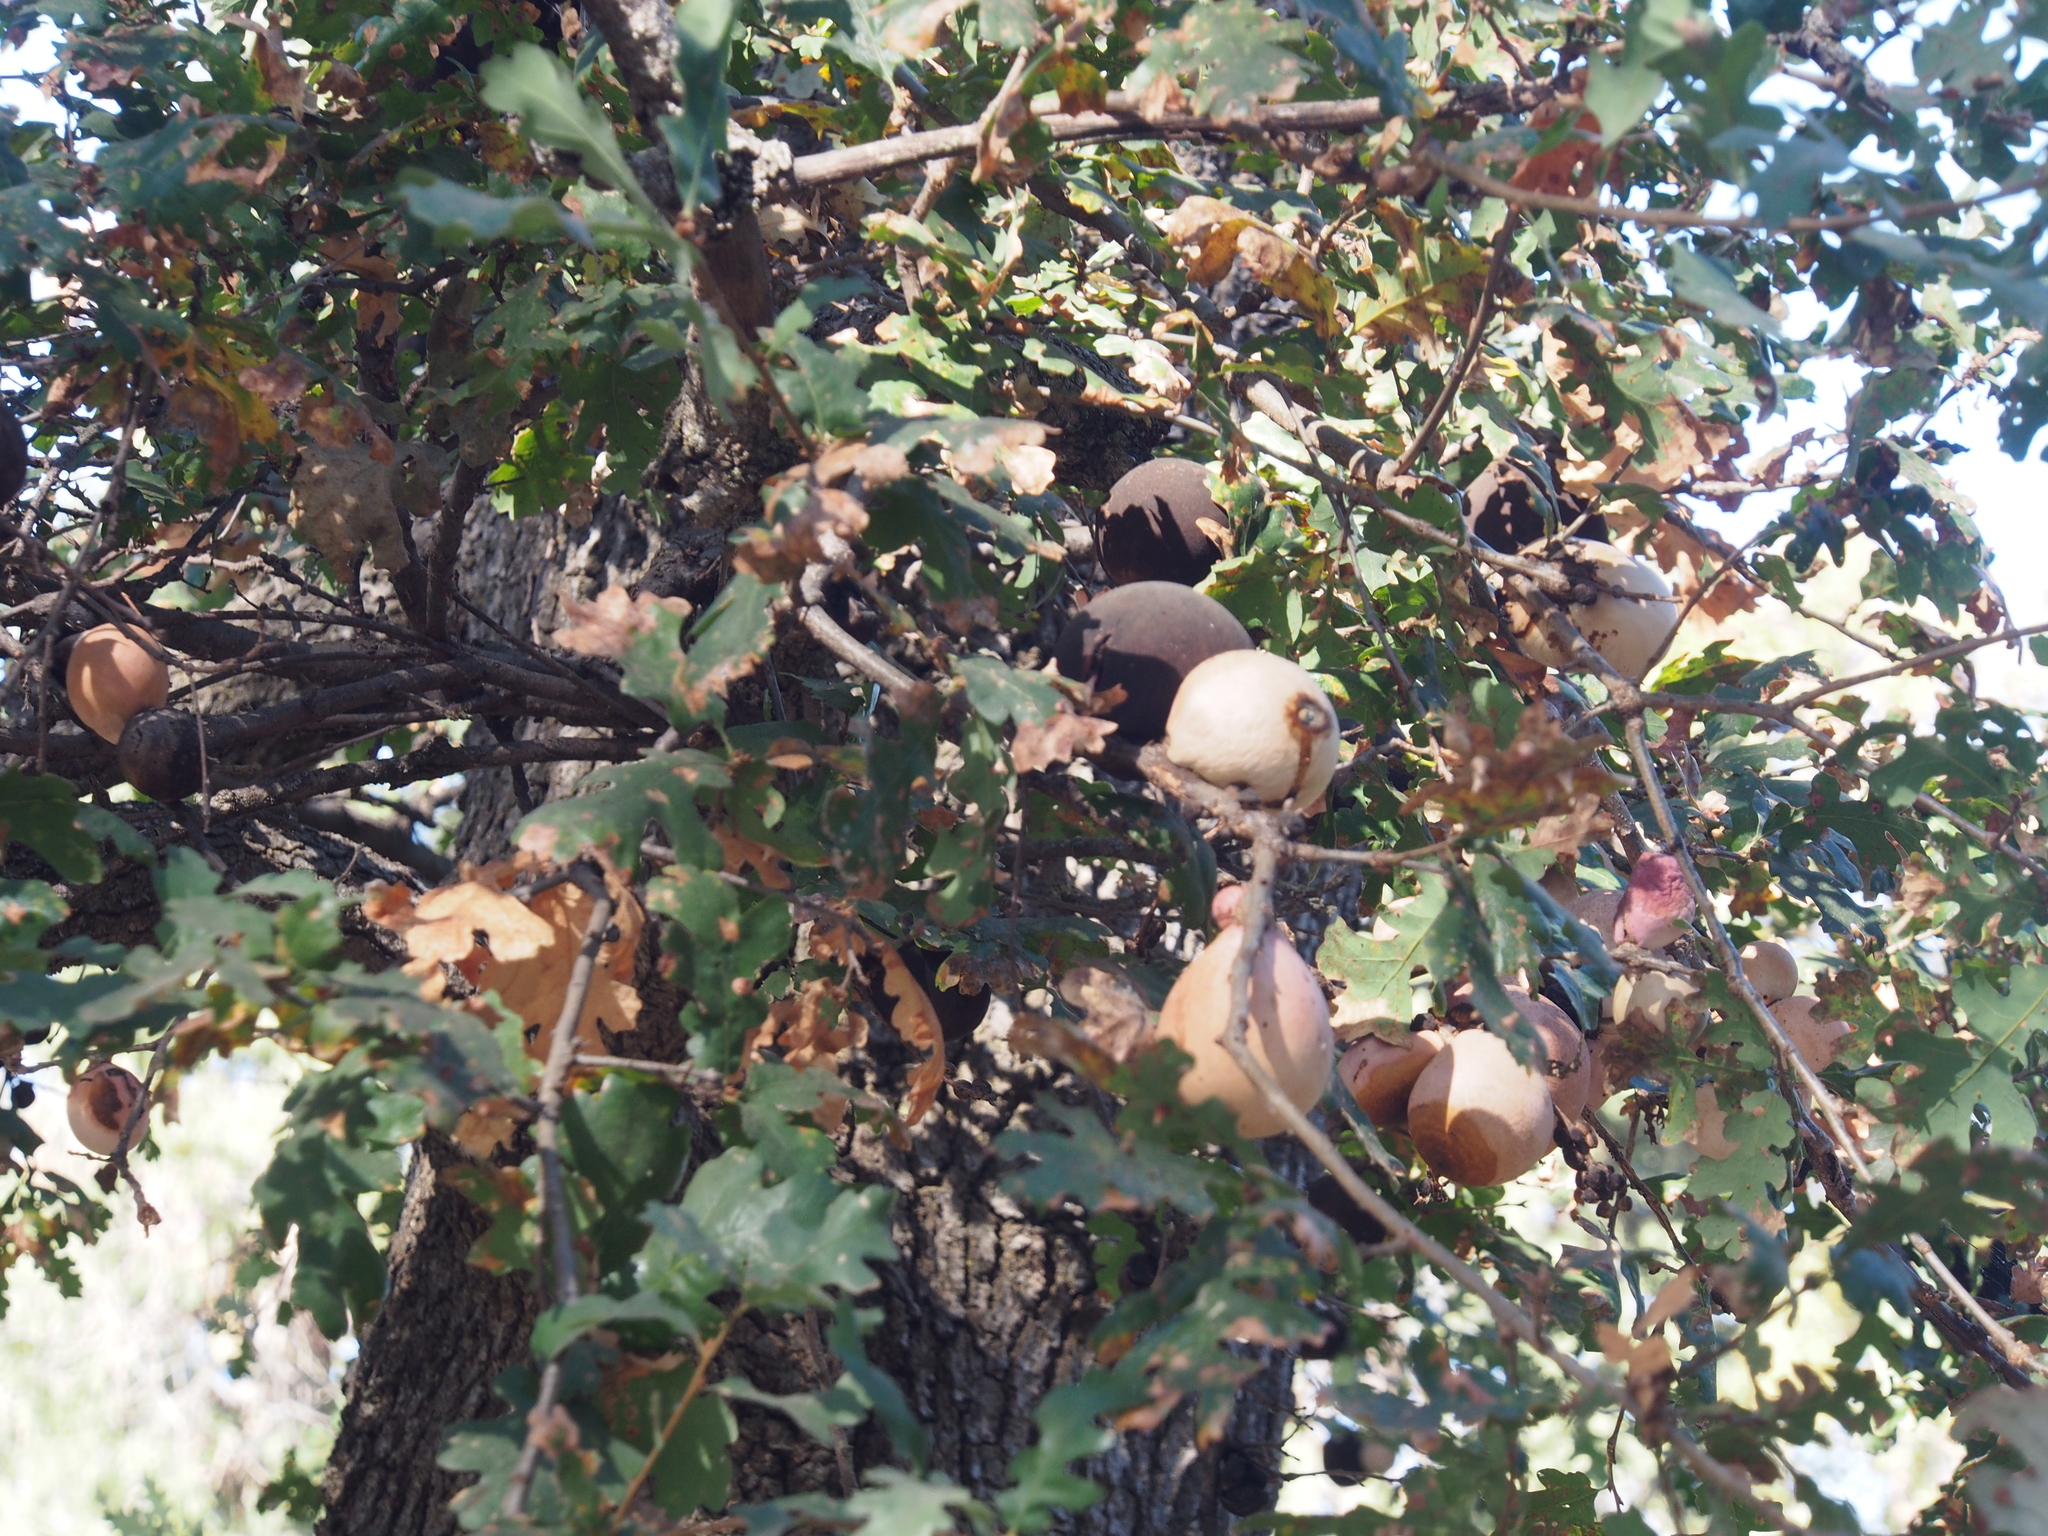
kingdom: Animalia
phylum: Arthropoda
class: Insecta
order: Hymenoptera
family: Cynipidae
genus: Andricus
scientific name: Andricus quercuscalifornicus
